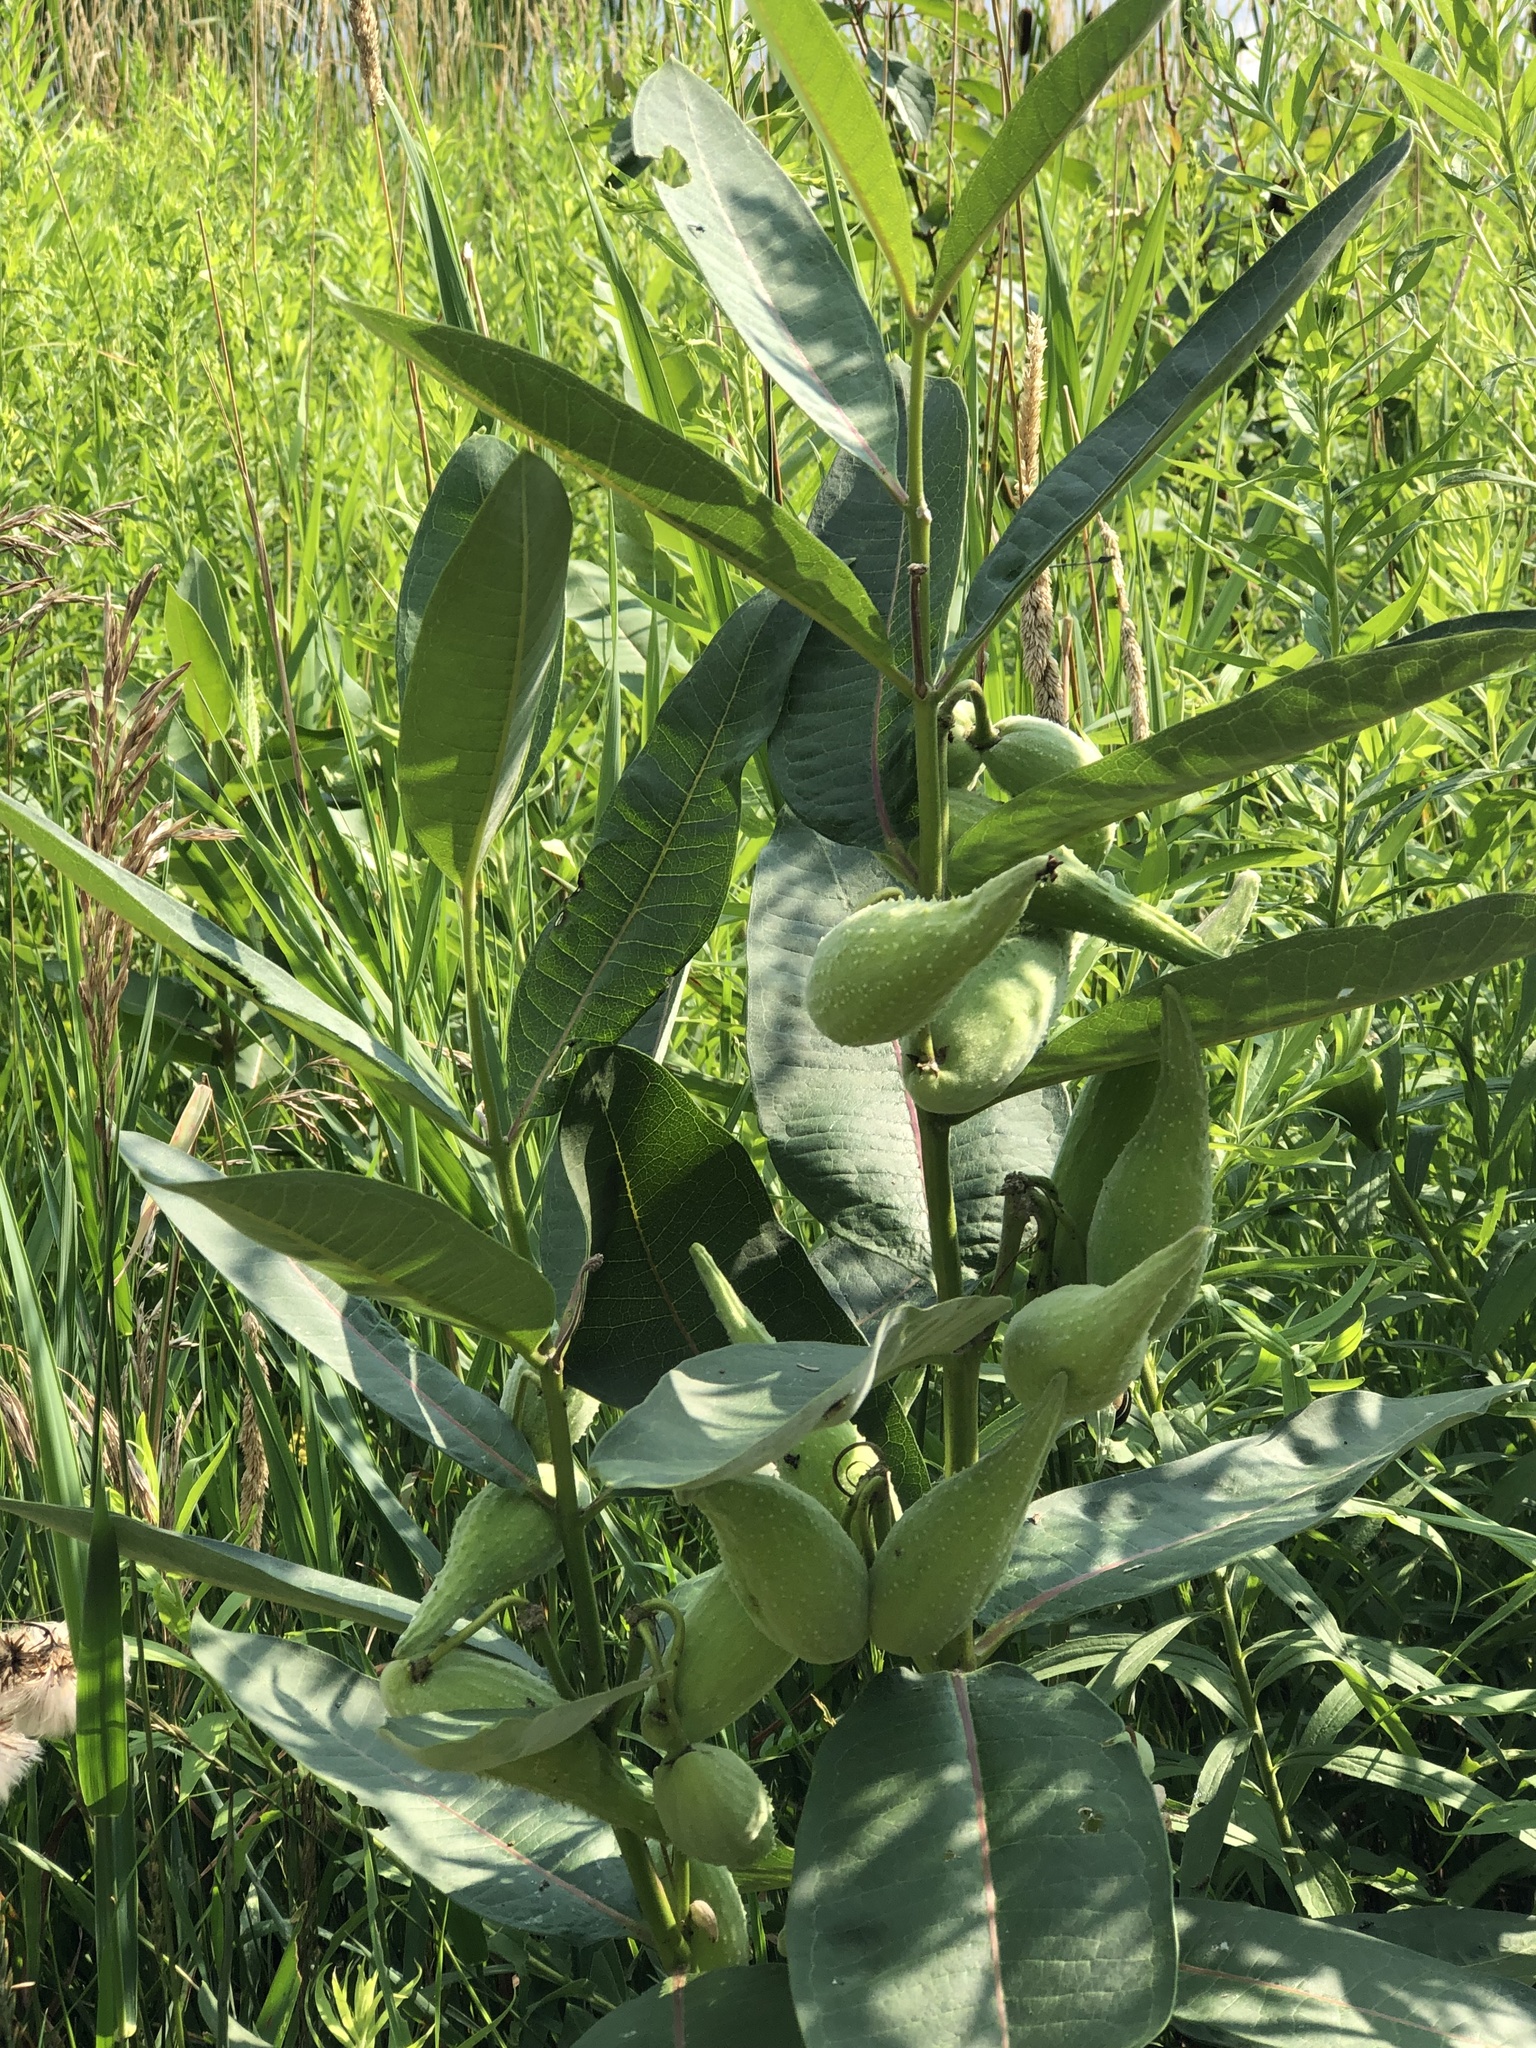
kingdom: Plantae
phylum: Tracheophyta
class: Magnoliopsida
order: Gentianales
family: Apocynaceae
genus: Asclepias
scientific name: Asclepias syriaca
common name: Common milkweed
